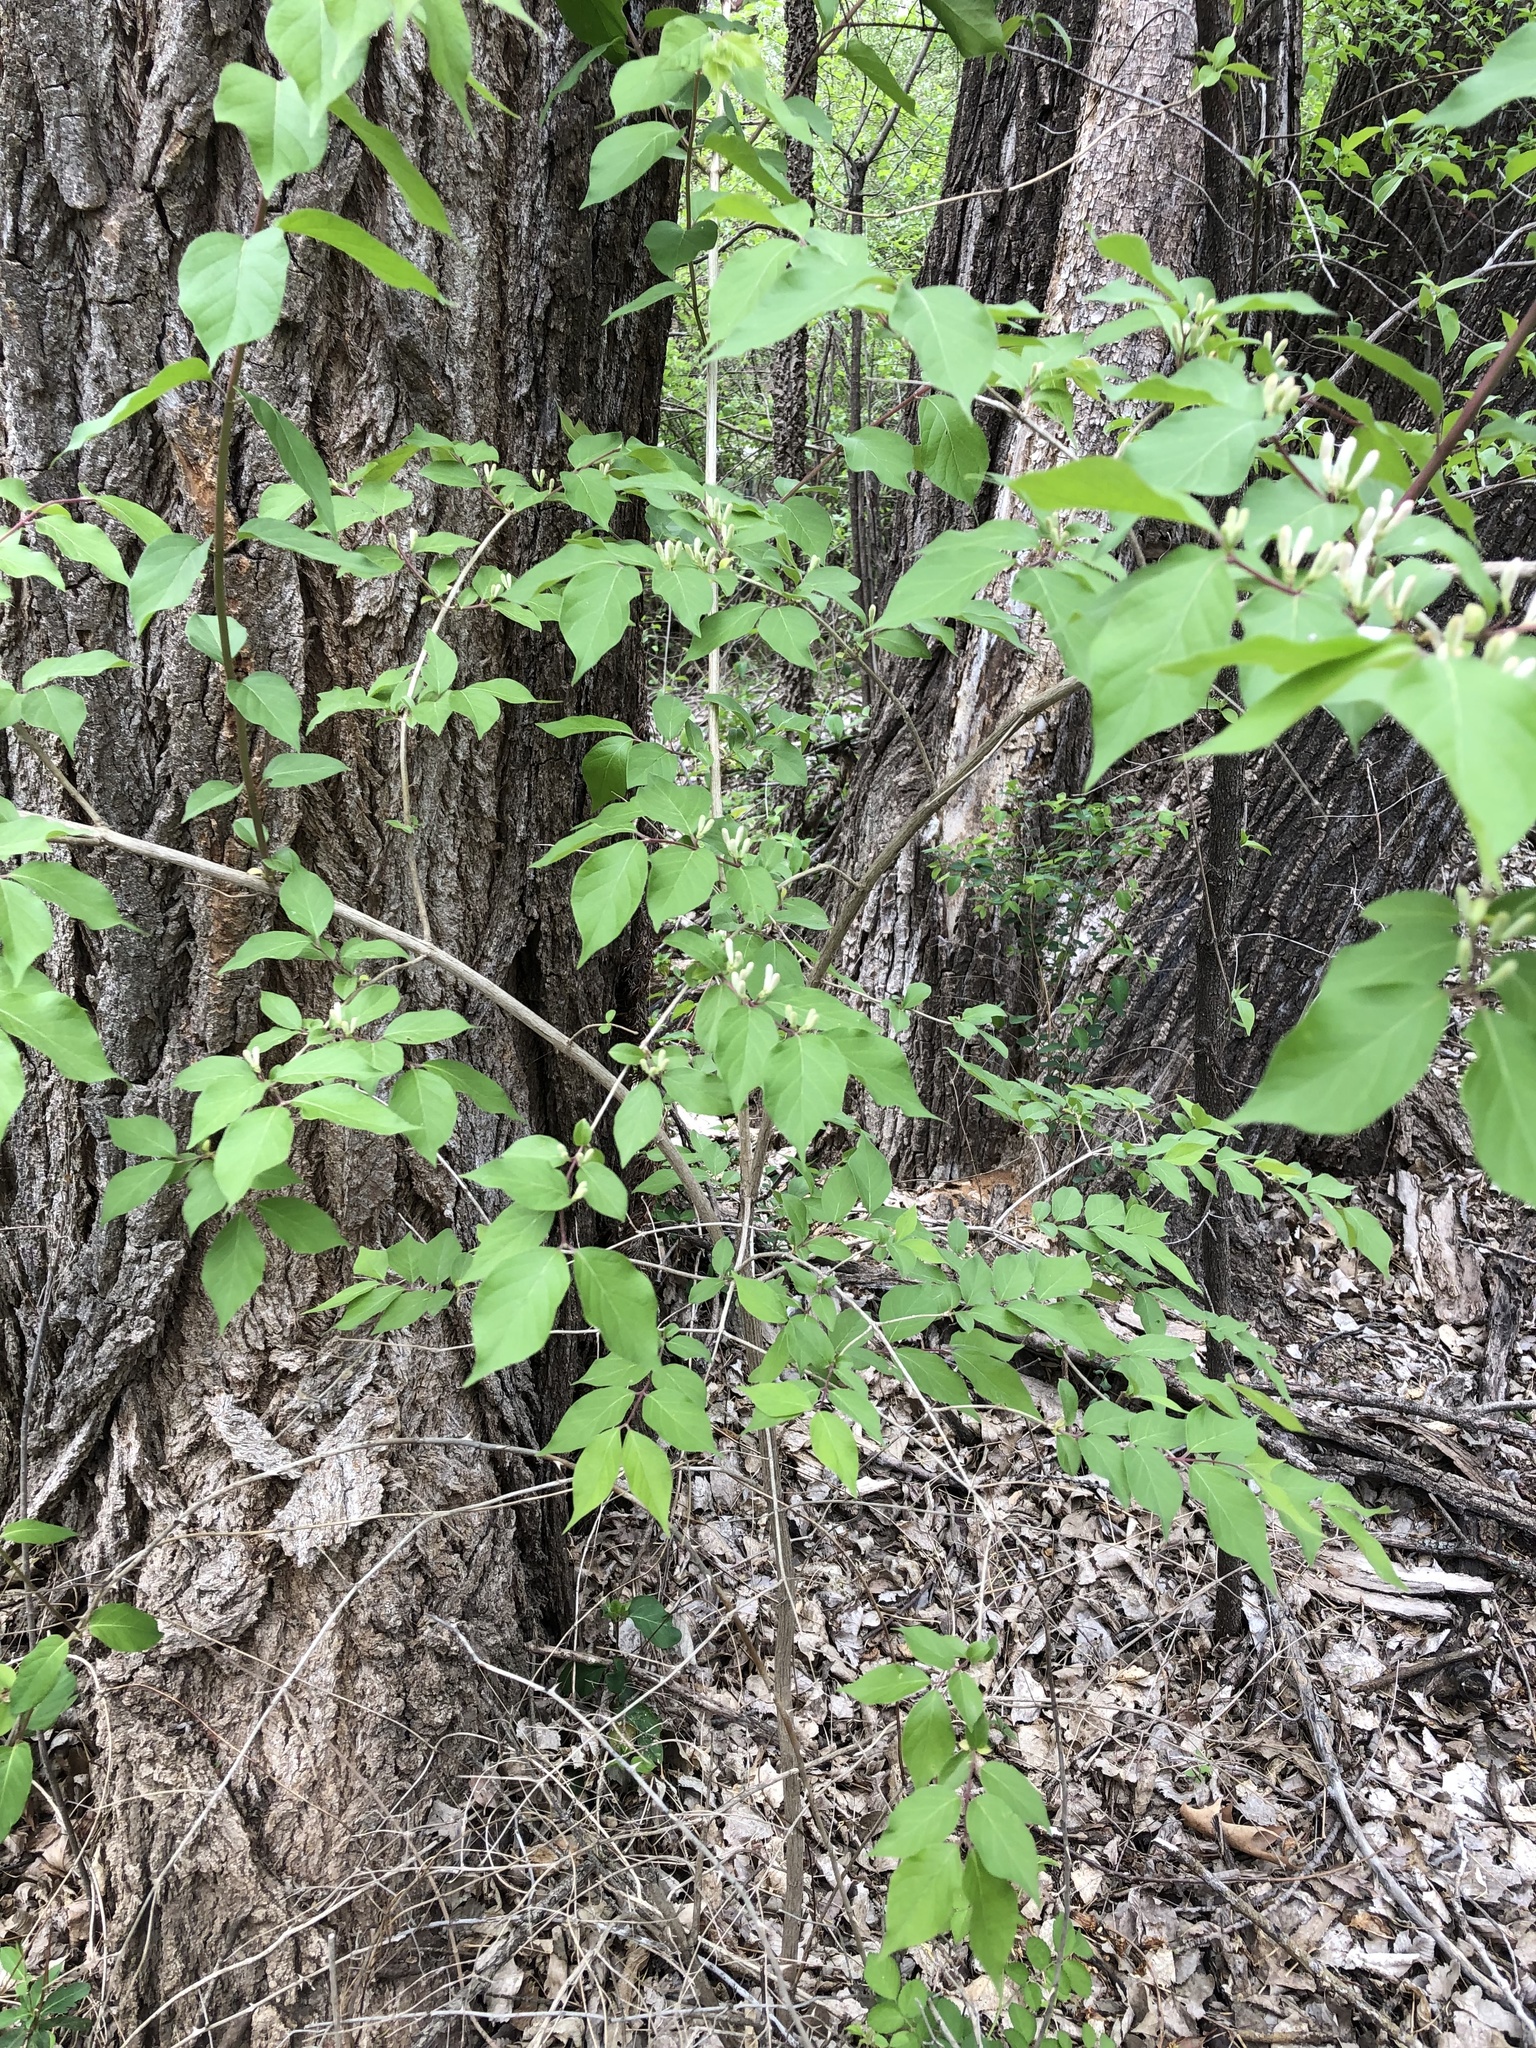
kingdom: Plantae
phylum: Tracheophyta
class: Magnoliopsida
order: Dipsacales
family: Caprifoliaceae
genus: Lonicera
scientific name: Lonicera maackii
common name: Amur honeysuckle
